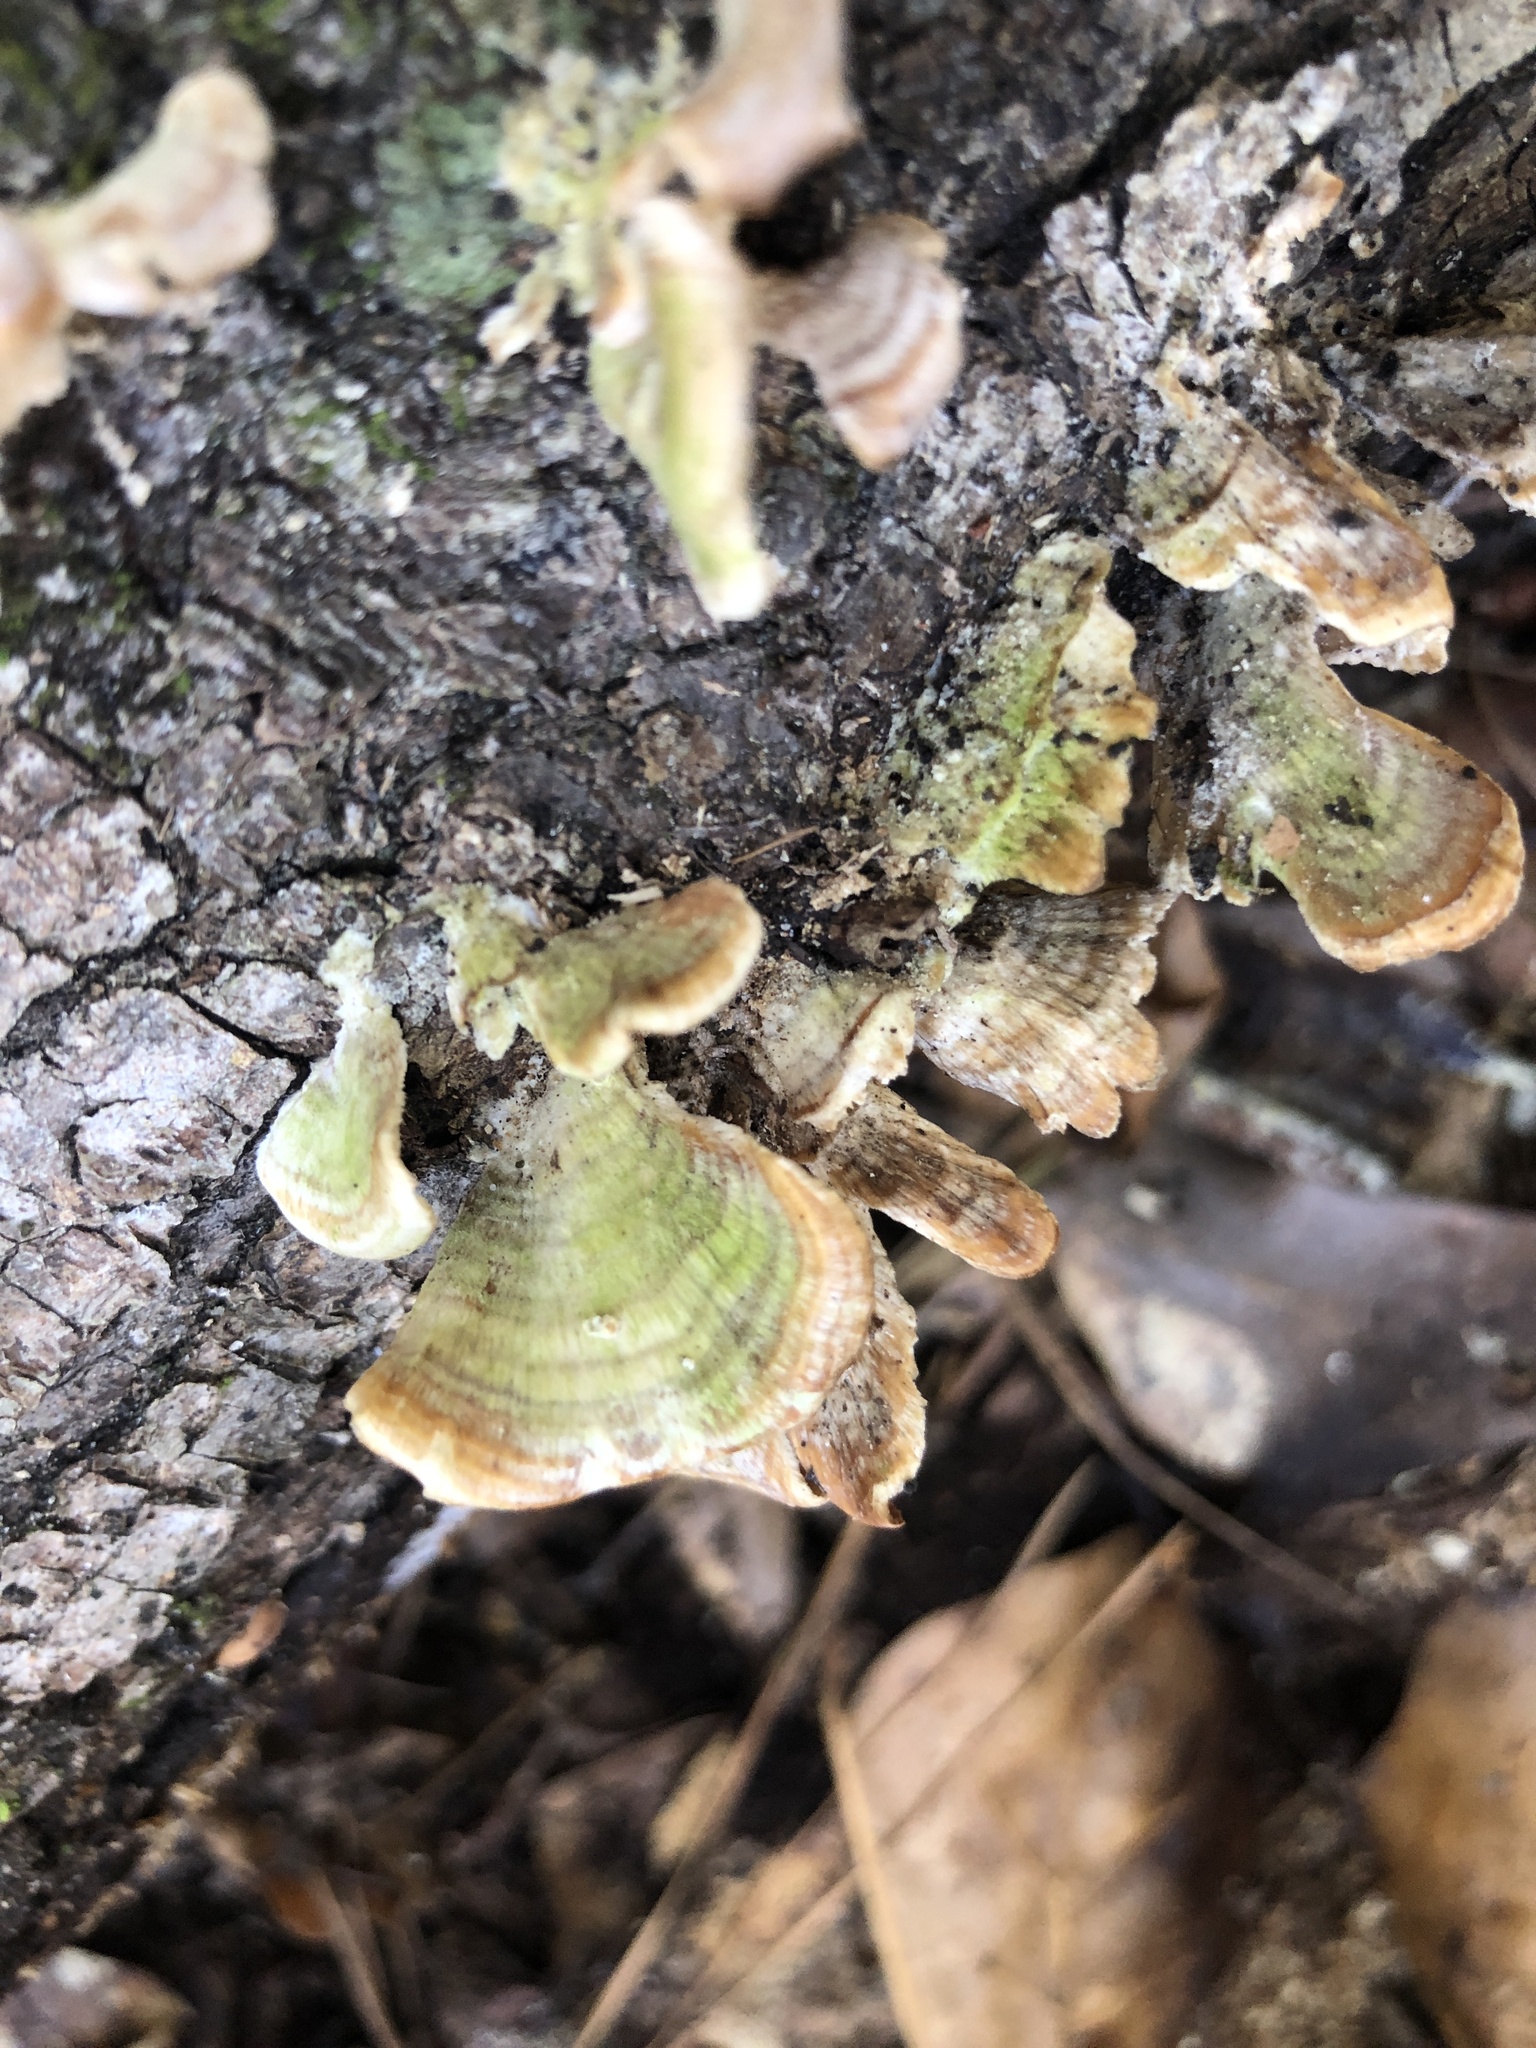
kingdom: Fungi
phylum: Basidiomycota
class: Agaricomycetes
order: Hymenochaetales
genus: Trichaptum
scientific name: Trichaptum biforme
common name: Violet-toothed polypore
